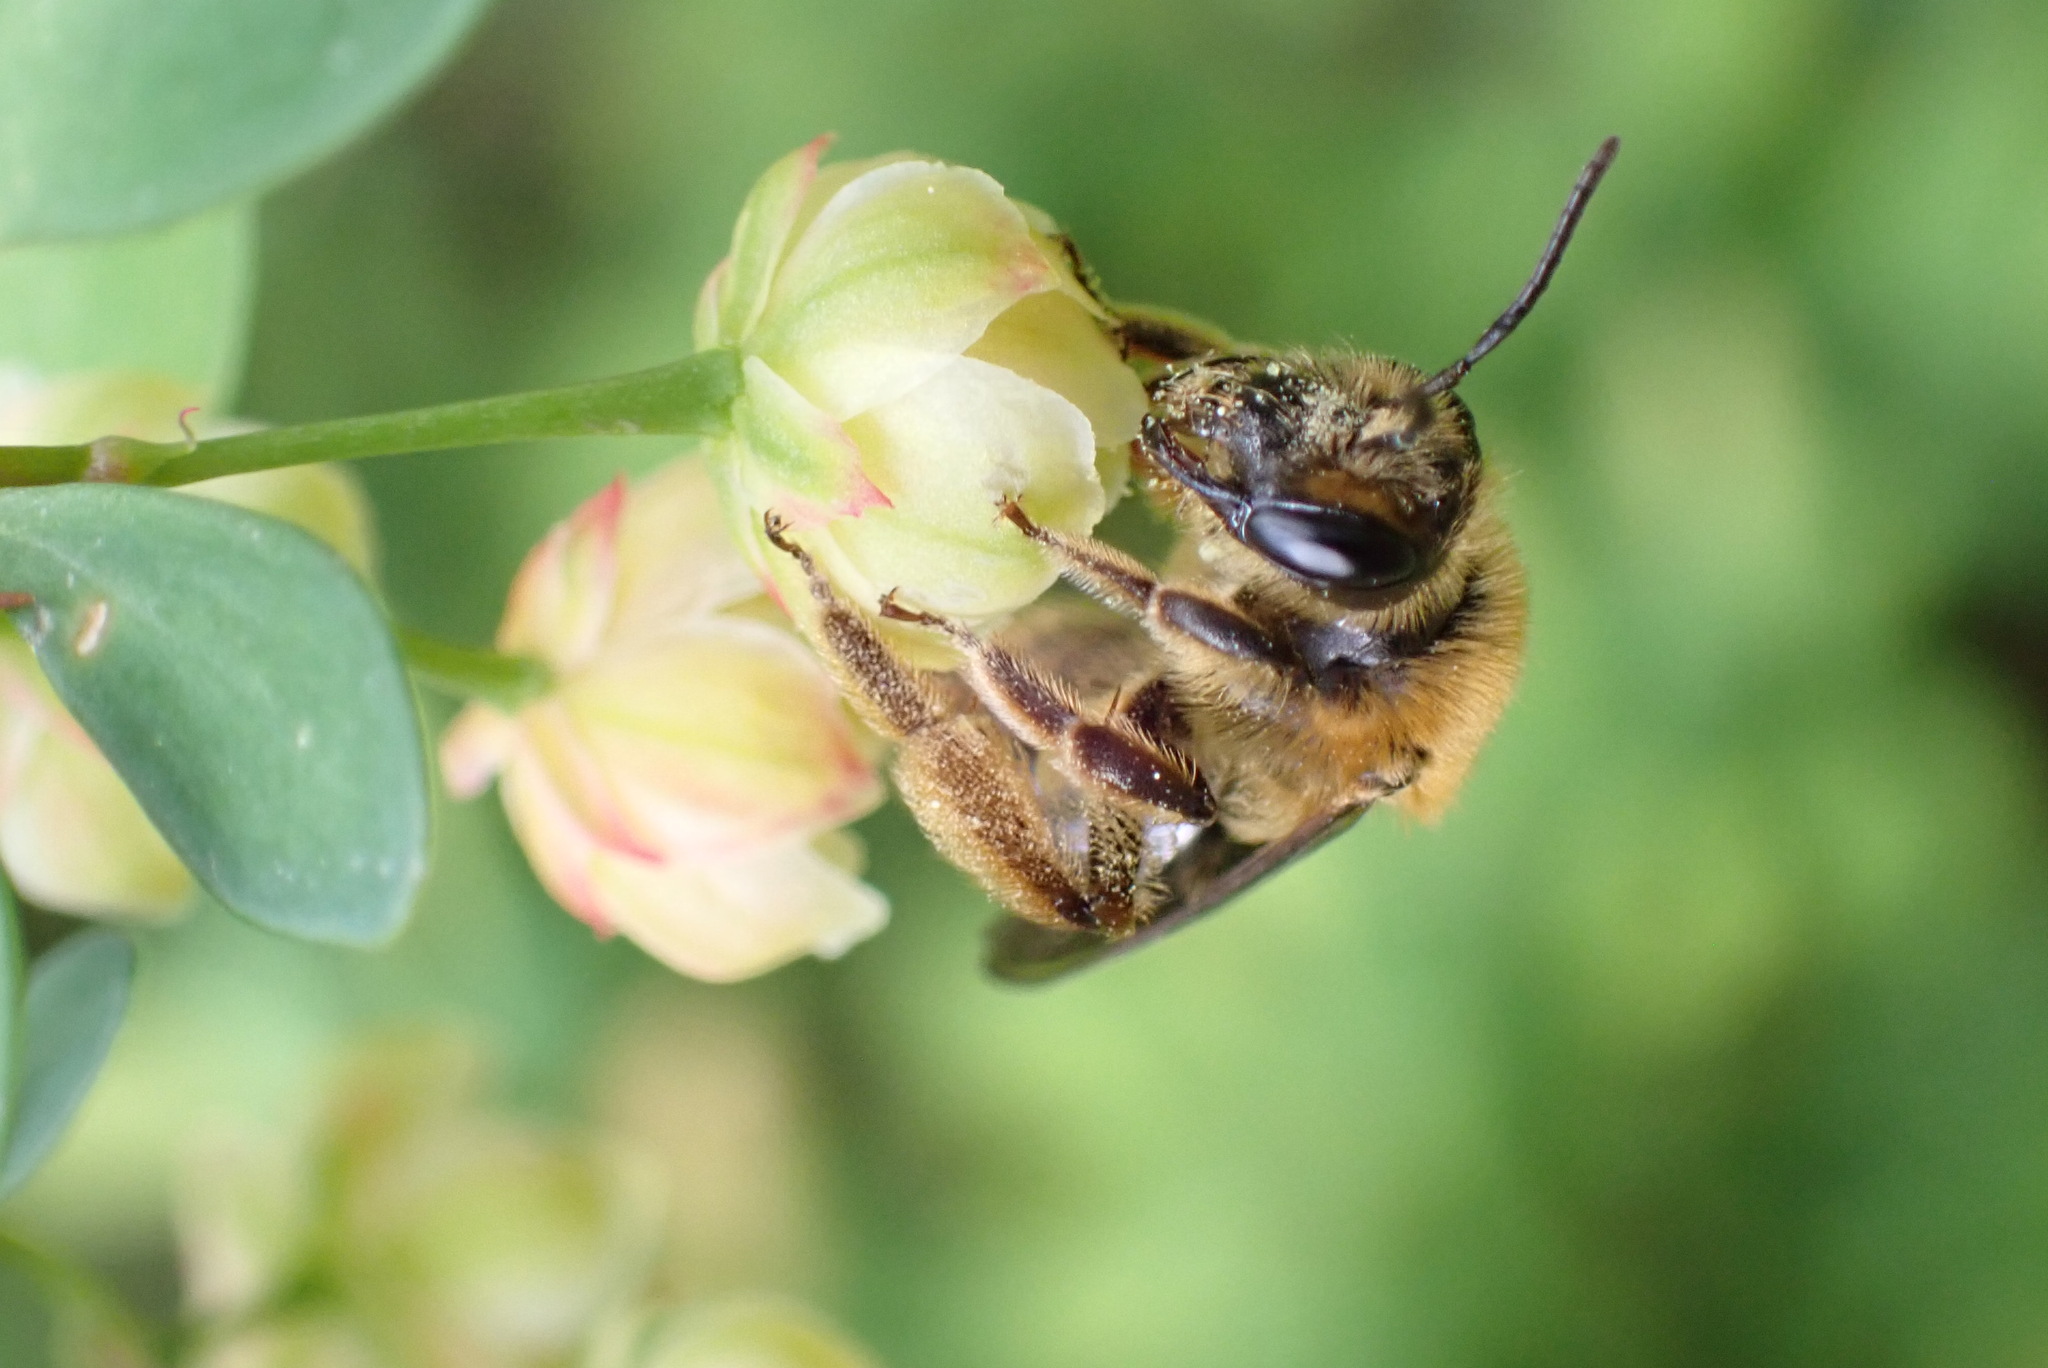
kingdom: Animalia
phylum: Arthropoda
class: Insecta
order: Hymenoptera
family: Andrenidae
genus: Andrena
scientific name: Andrena dunningi
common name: Dunning's miner
